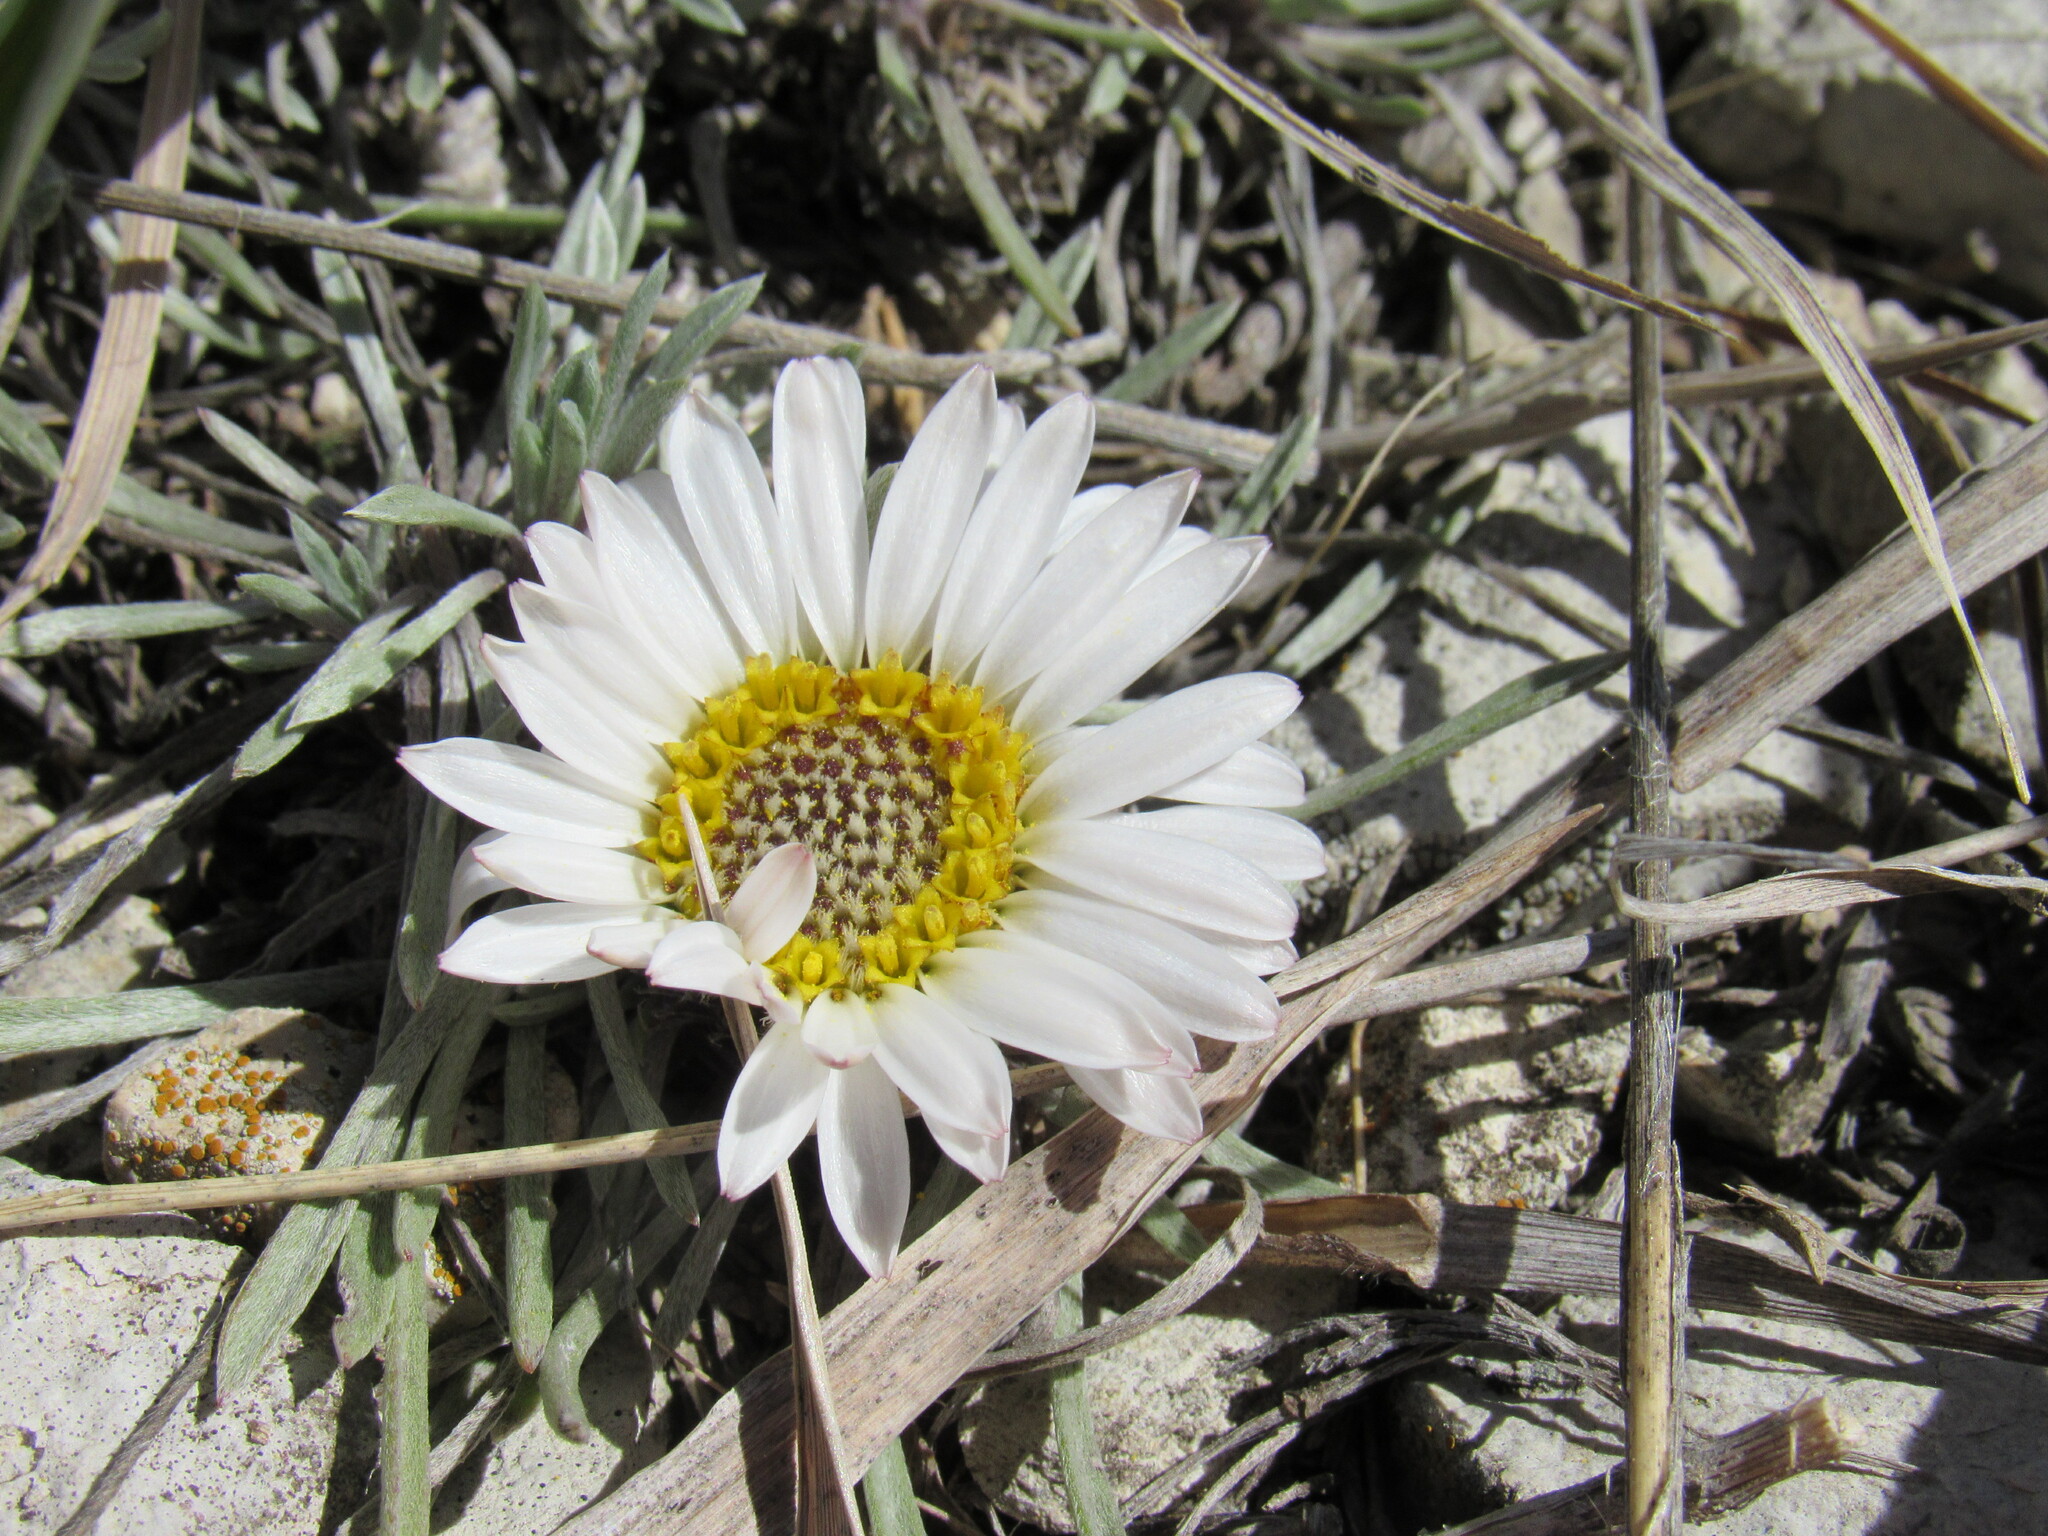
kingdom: Plantae
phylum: Tracheophyta
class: Magnoliopsida
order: Asterales
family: Asteraceae
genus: Townsendia
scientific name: Townsendia hookeri
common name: Hooker's townsend daisy
